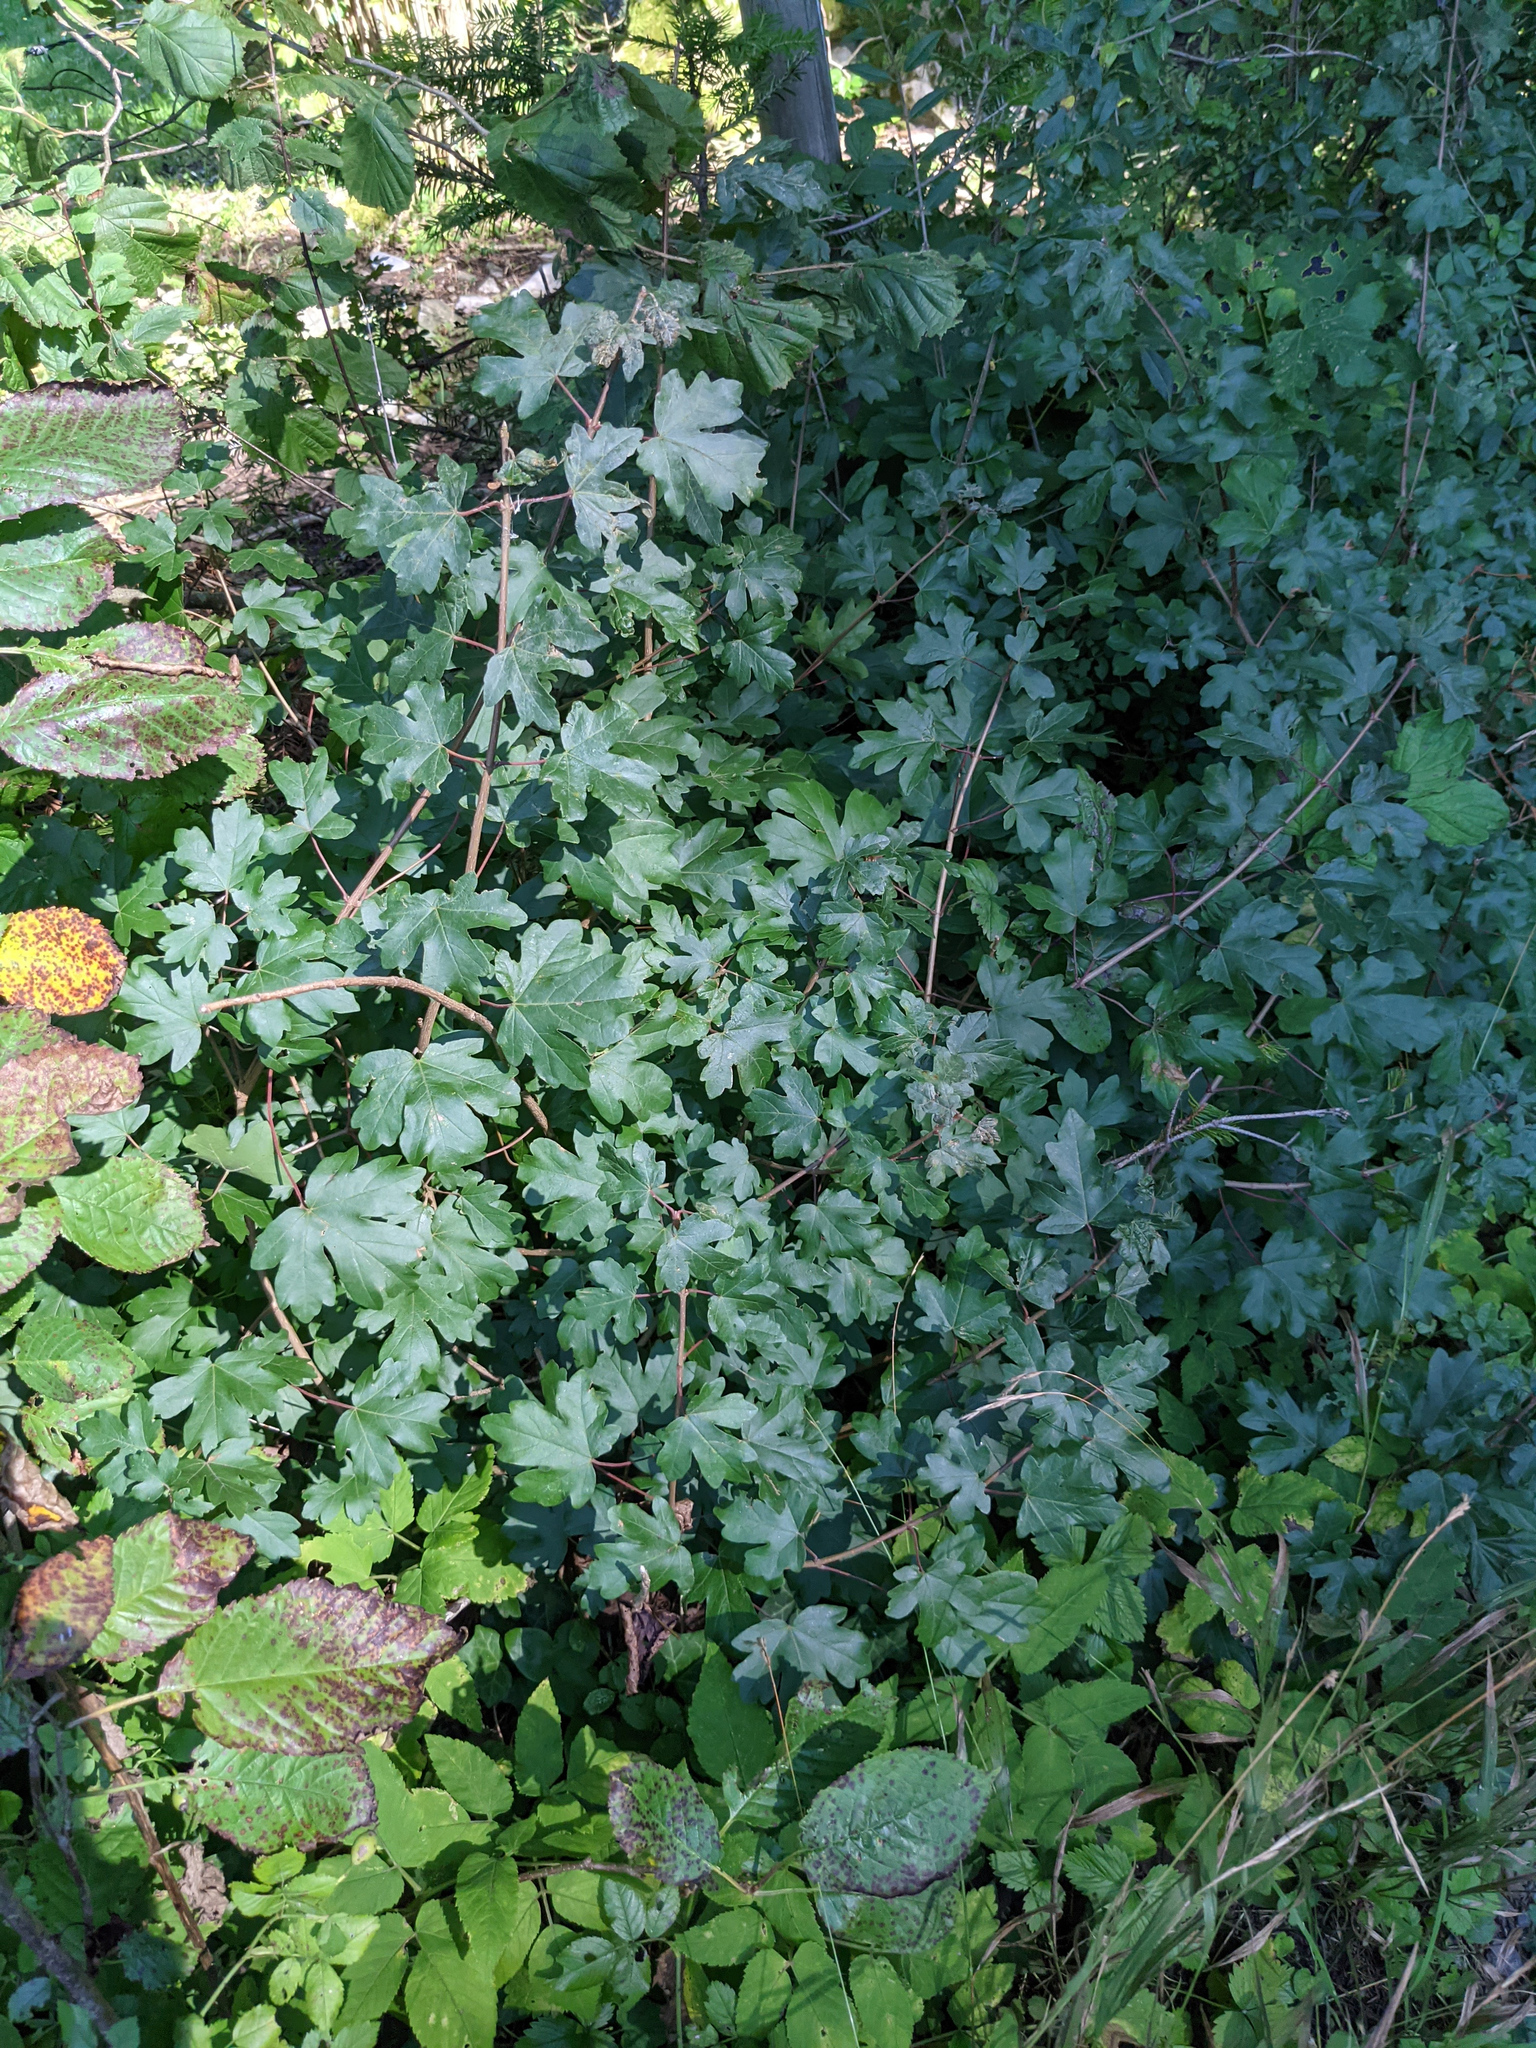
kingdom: Plantae
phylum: Tracheophyta
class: Magnoliopsida
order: Sapindales
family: Sapindaceae
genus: Acer
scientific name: Acer campestre
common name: Field maple
